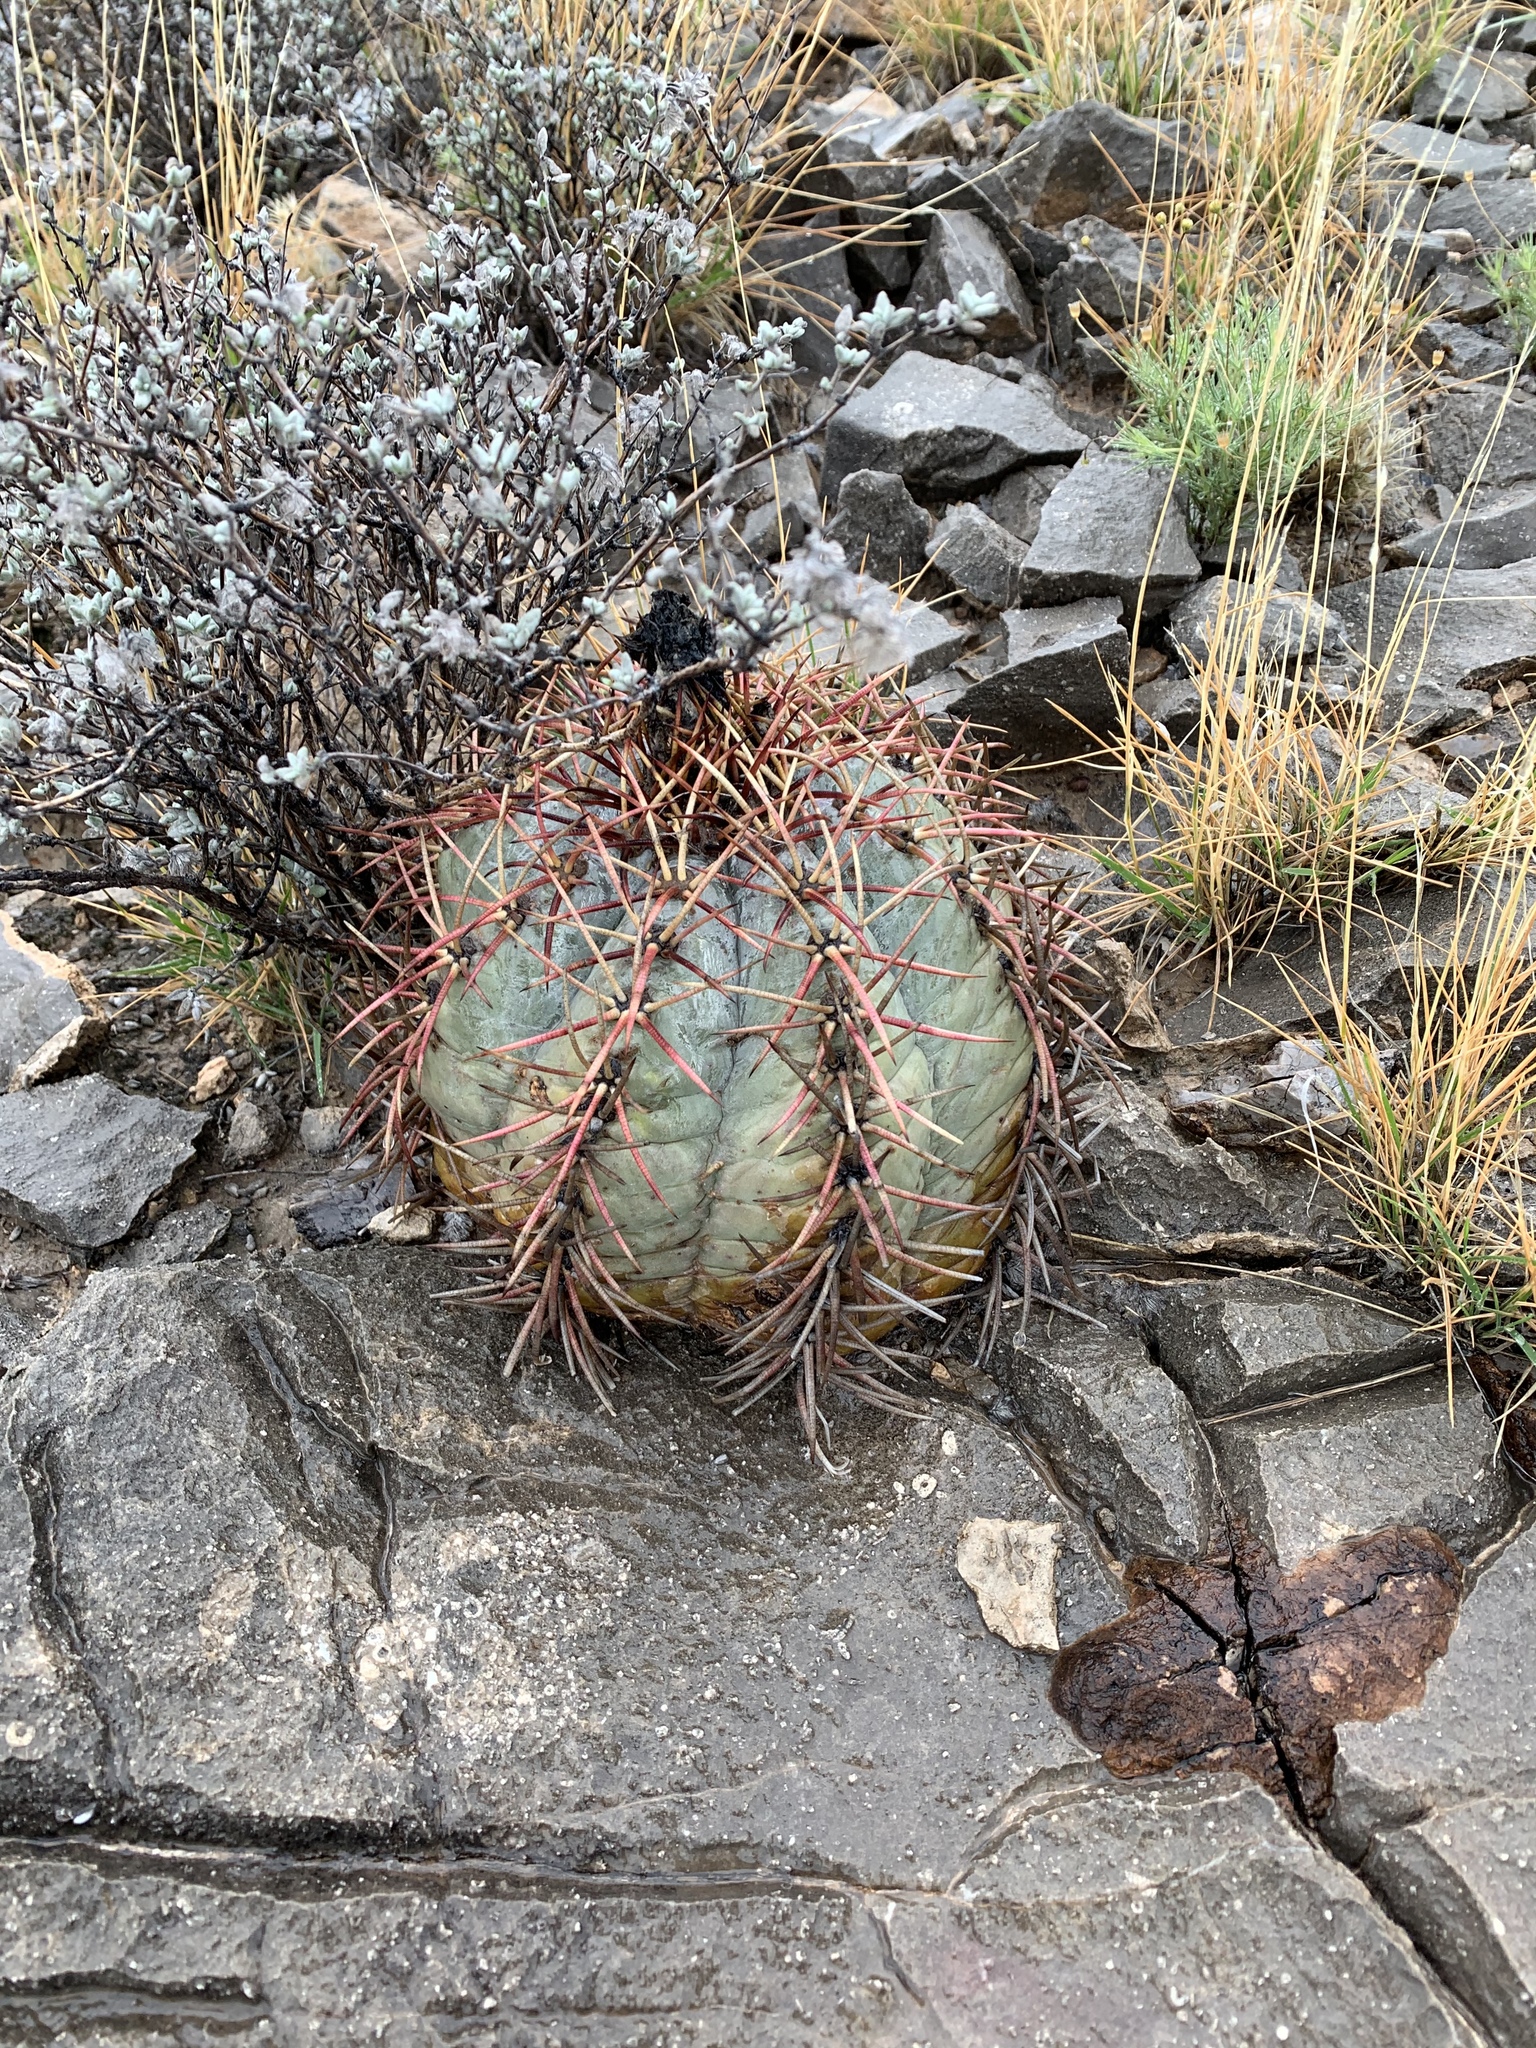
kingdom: Plantae
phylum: Tracheophyta
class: Magnoliopsida
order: Caryophyllales
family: Cactaceae
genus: Echinocactus
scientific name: Echinocactus horizonthalonius
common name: Devilshead
